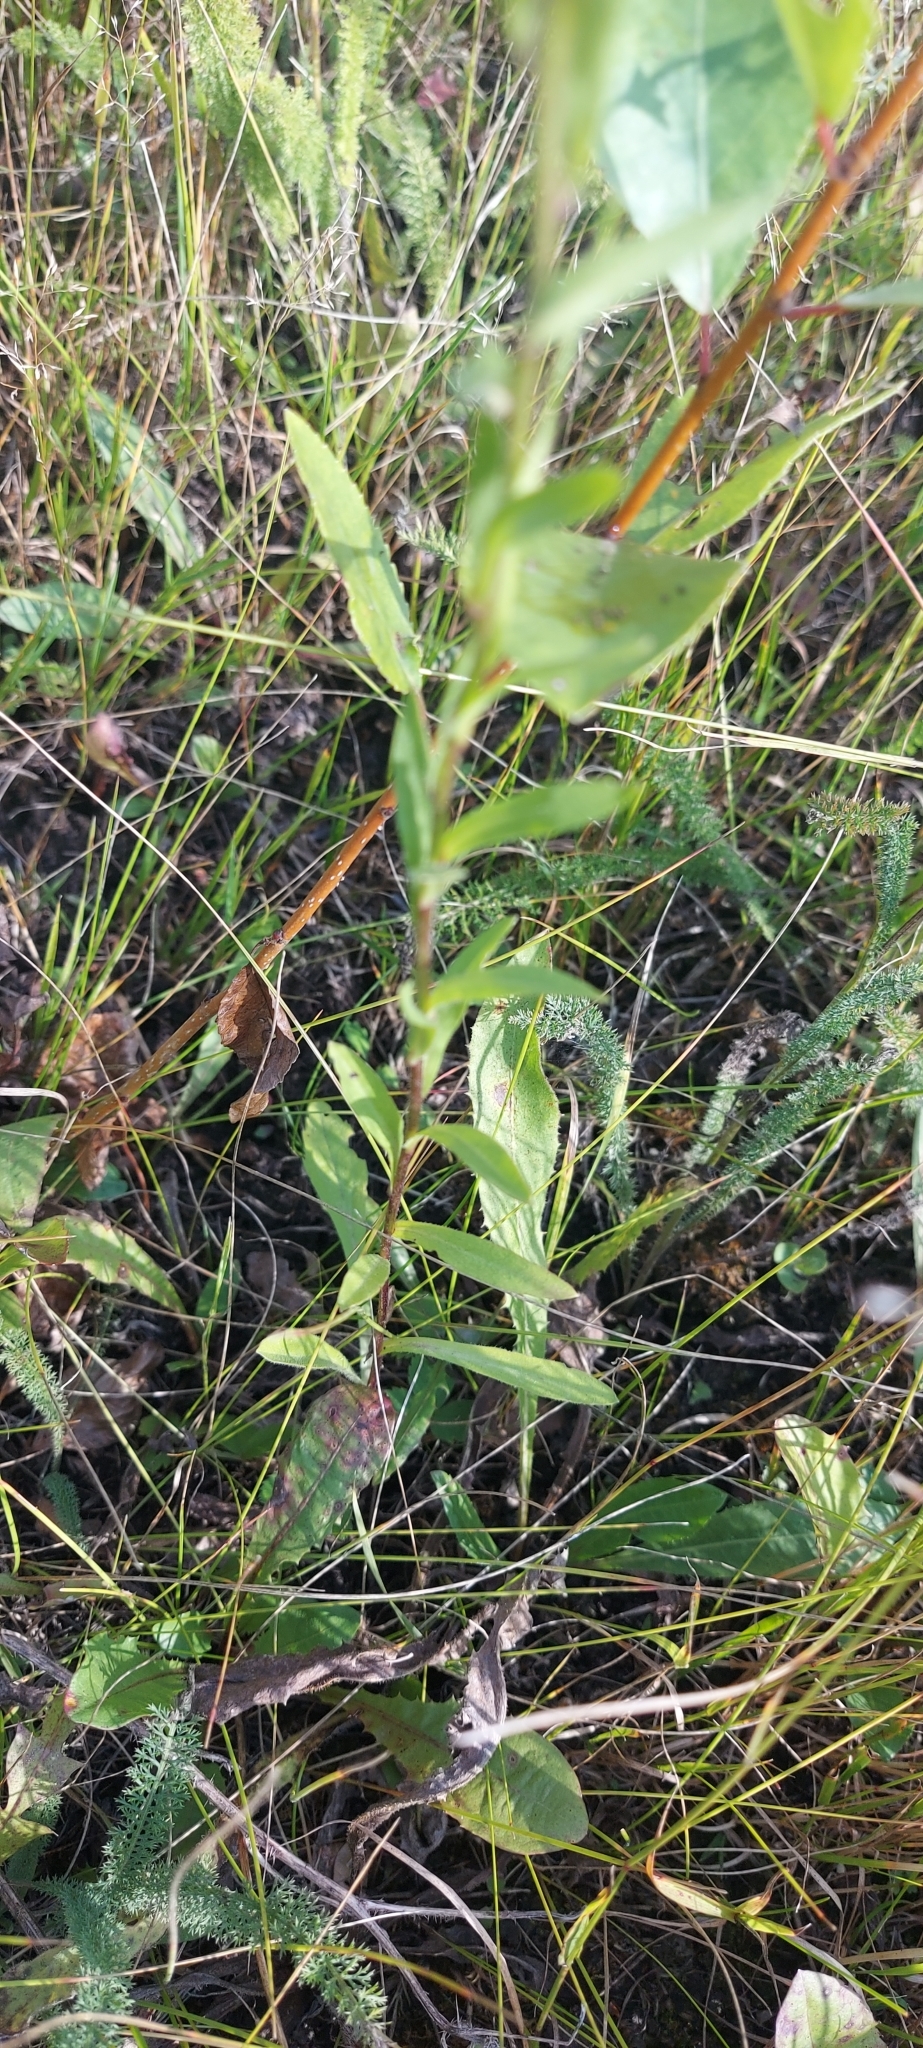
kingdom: Plantae
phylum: Tracheophyta
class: Magnoliopsida
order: Asterales
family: Asteraceae
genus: Erigeron
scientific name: Erigeron acris
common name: Blue fleabane
